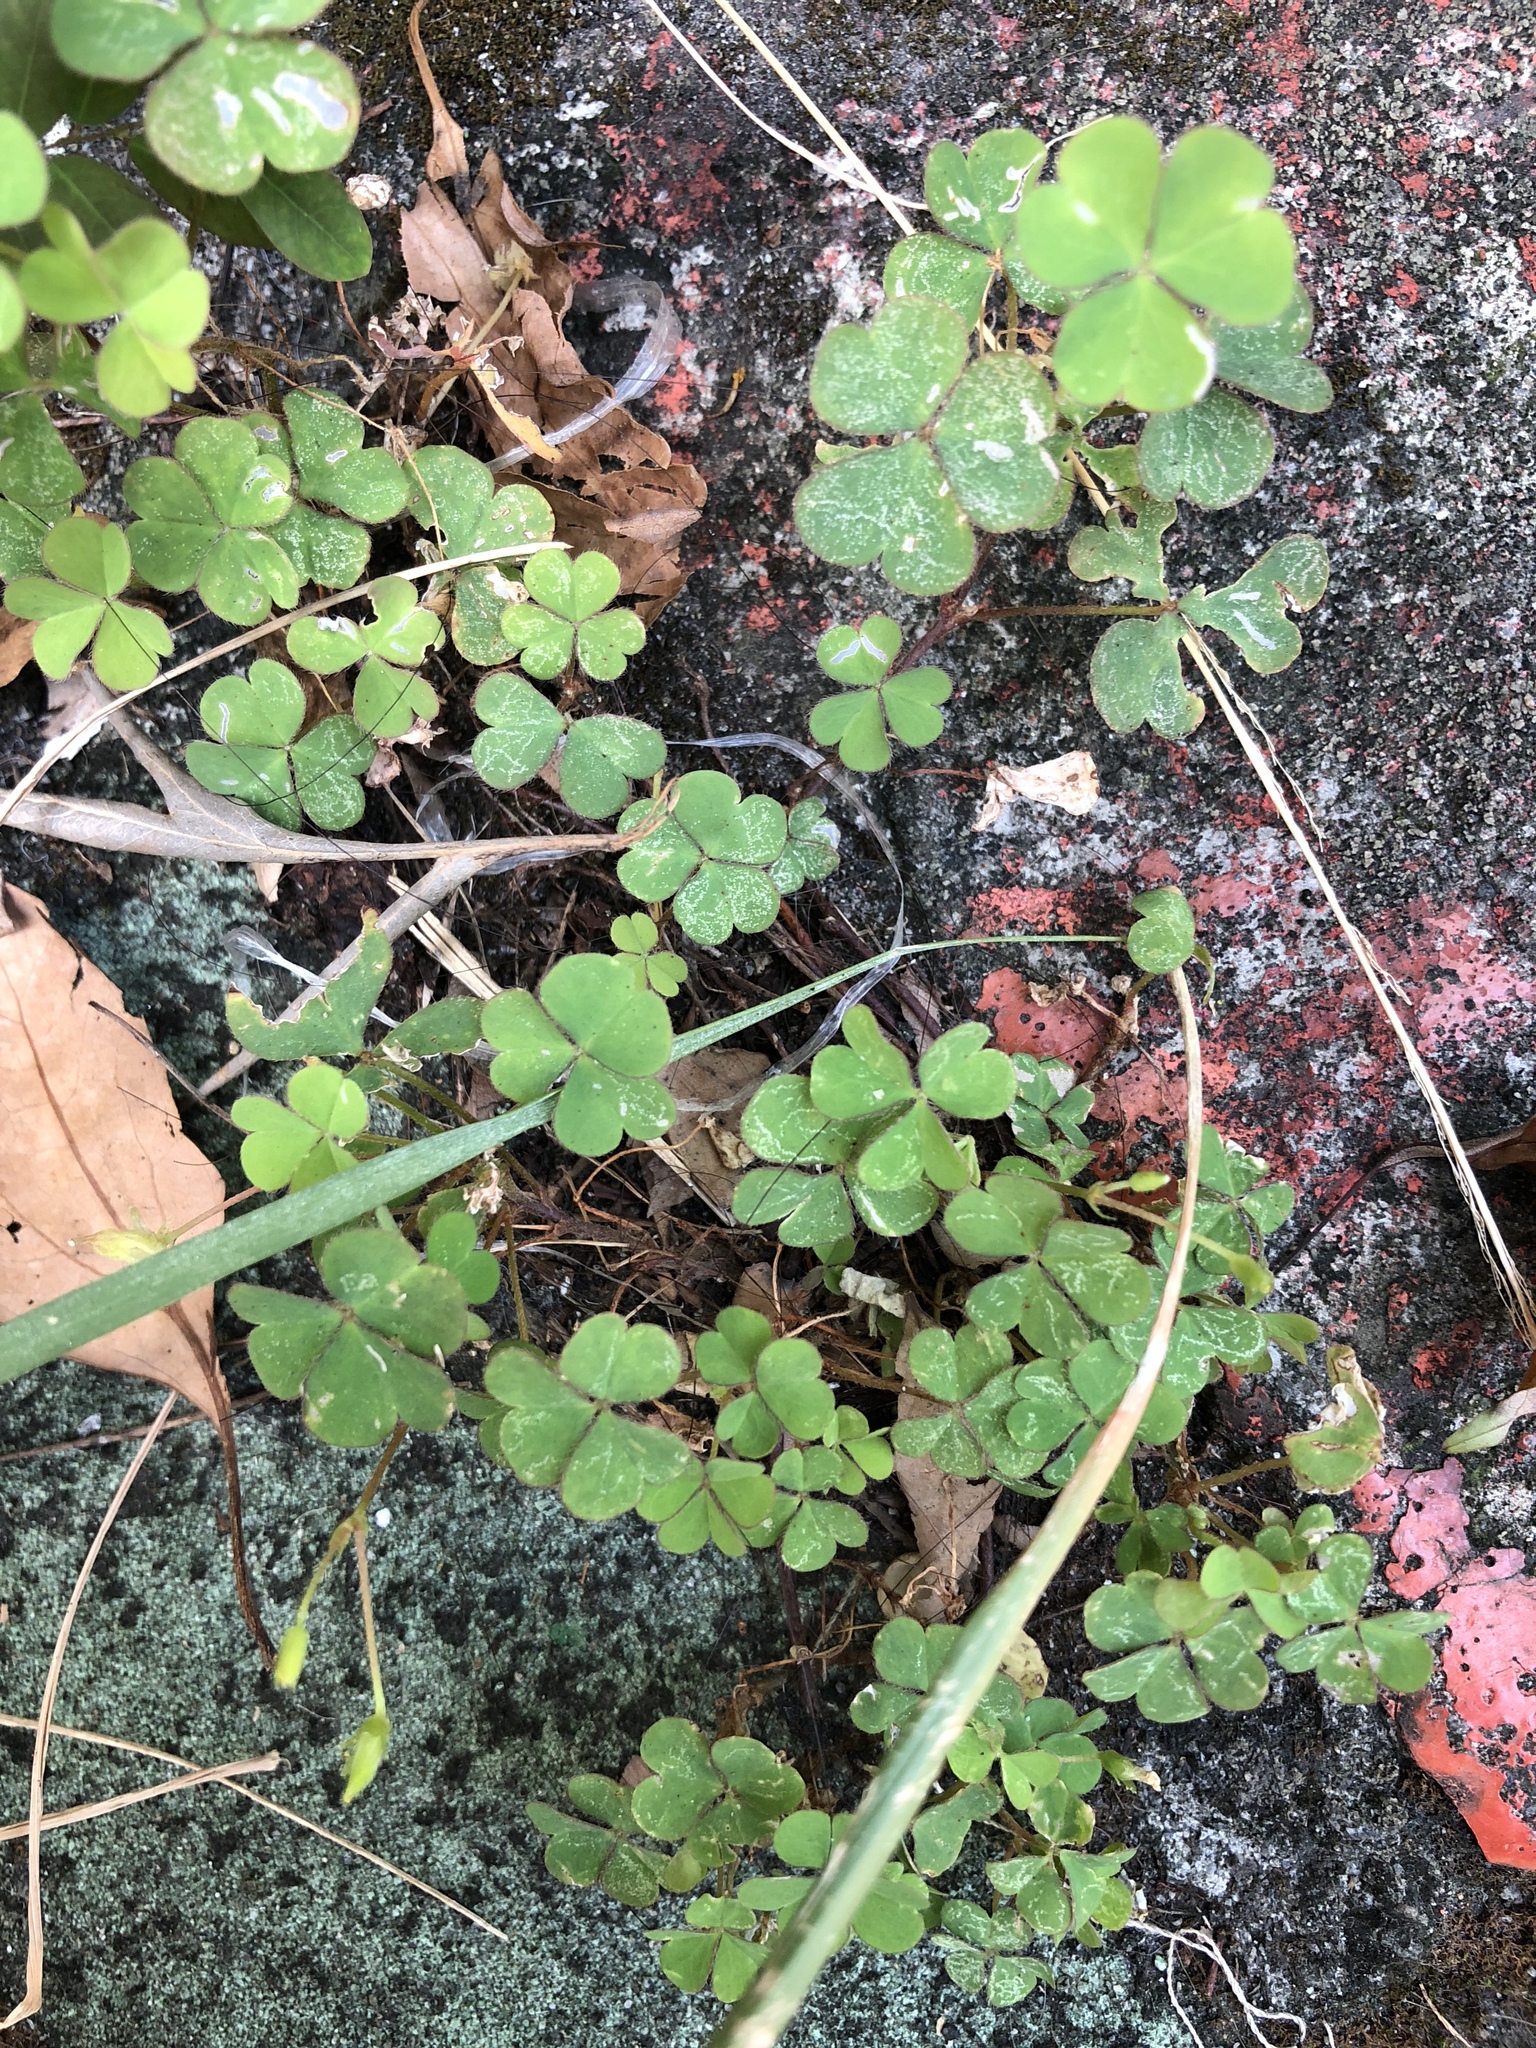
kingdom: Plantae
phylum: Tracheophyta
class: Magnoliopsida
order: Oxalidales
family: Oxalidaceae
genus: Oxalis
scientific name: Oxalis corniculata
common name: Procumbent yellow-sorrel
